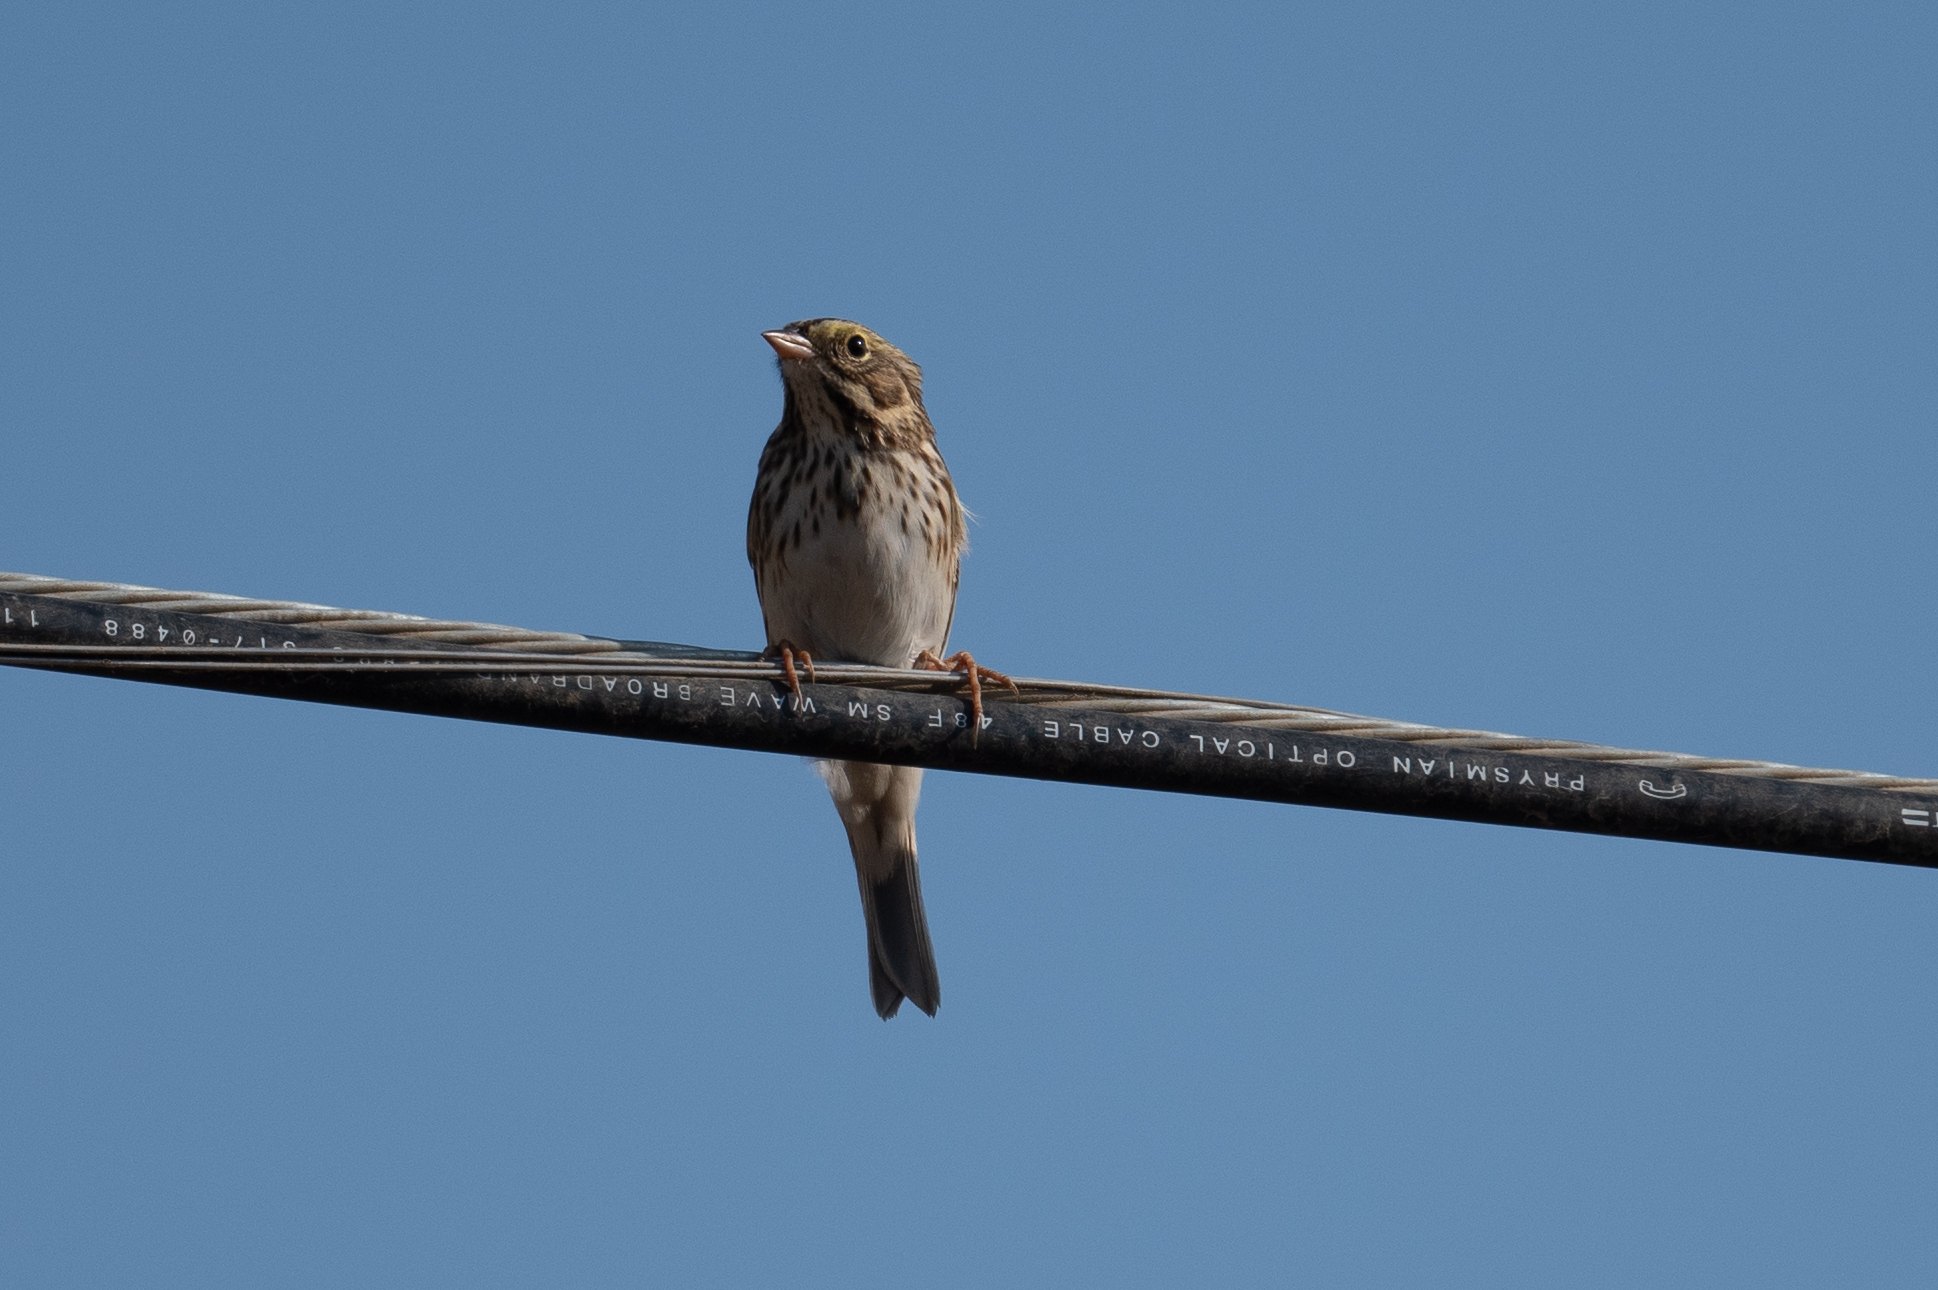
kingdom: Animalia
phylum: Chordata
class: Aves
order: Passeriformes
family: Passerellidae
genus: Passerculus
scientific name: Passerculus sandwichensis
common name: Savannah sparrow
